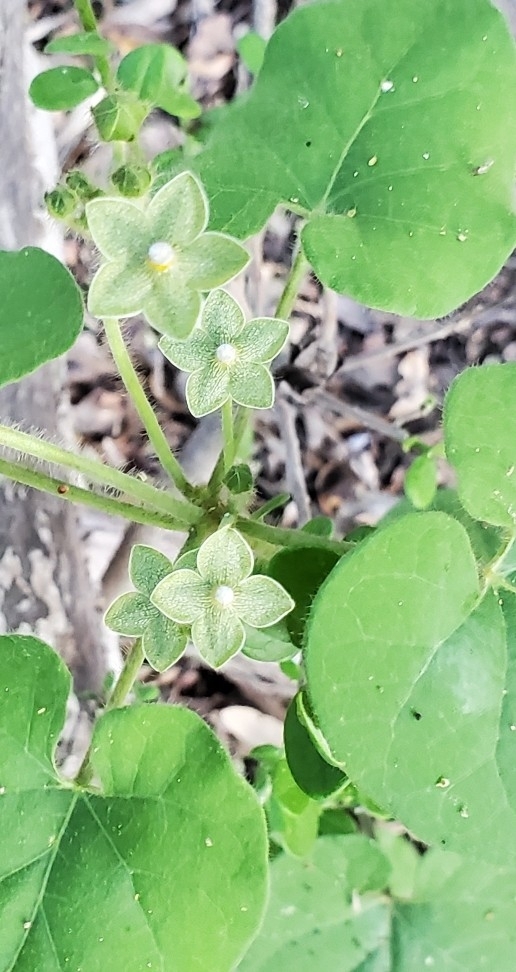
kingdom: Plantae
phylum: Tracheophyta
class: Magnoliopsida
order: Gentianales
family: Apocynaceae
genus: Dictyanthus
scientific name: Dictyanthus reticulatus
